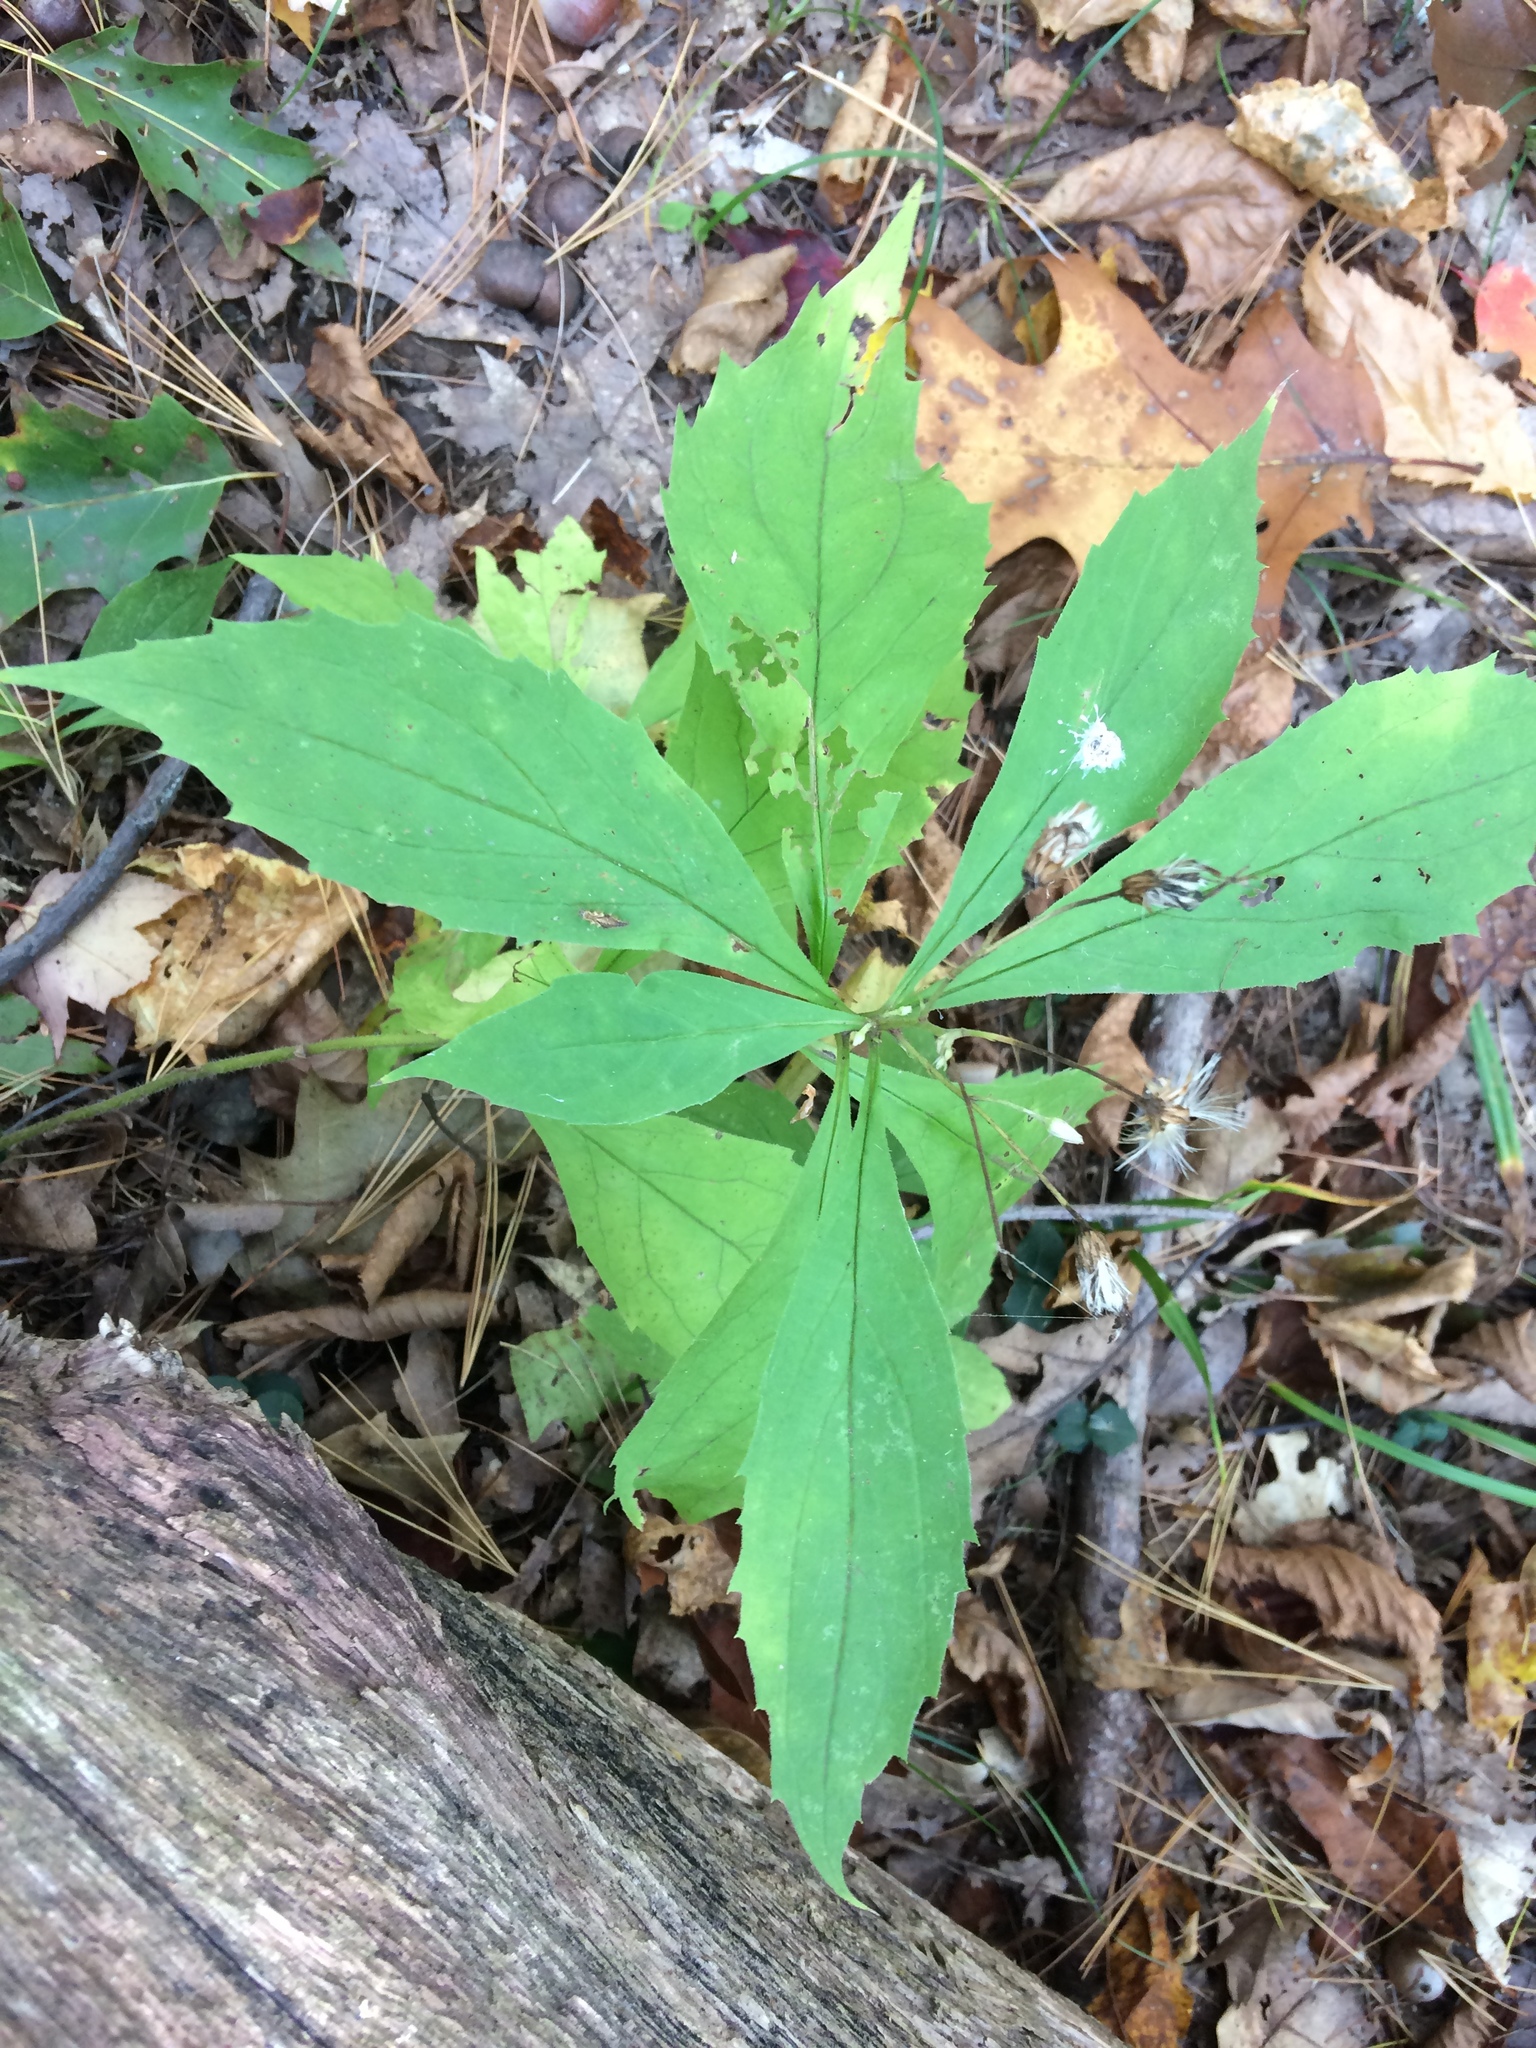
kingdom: Plantae
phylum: Tracheophyta
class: Magnoliopsida
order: Asterales
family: Asteraceae
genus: Oclemena
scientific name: Oclemena acuminata
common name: Mountain aster
